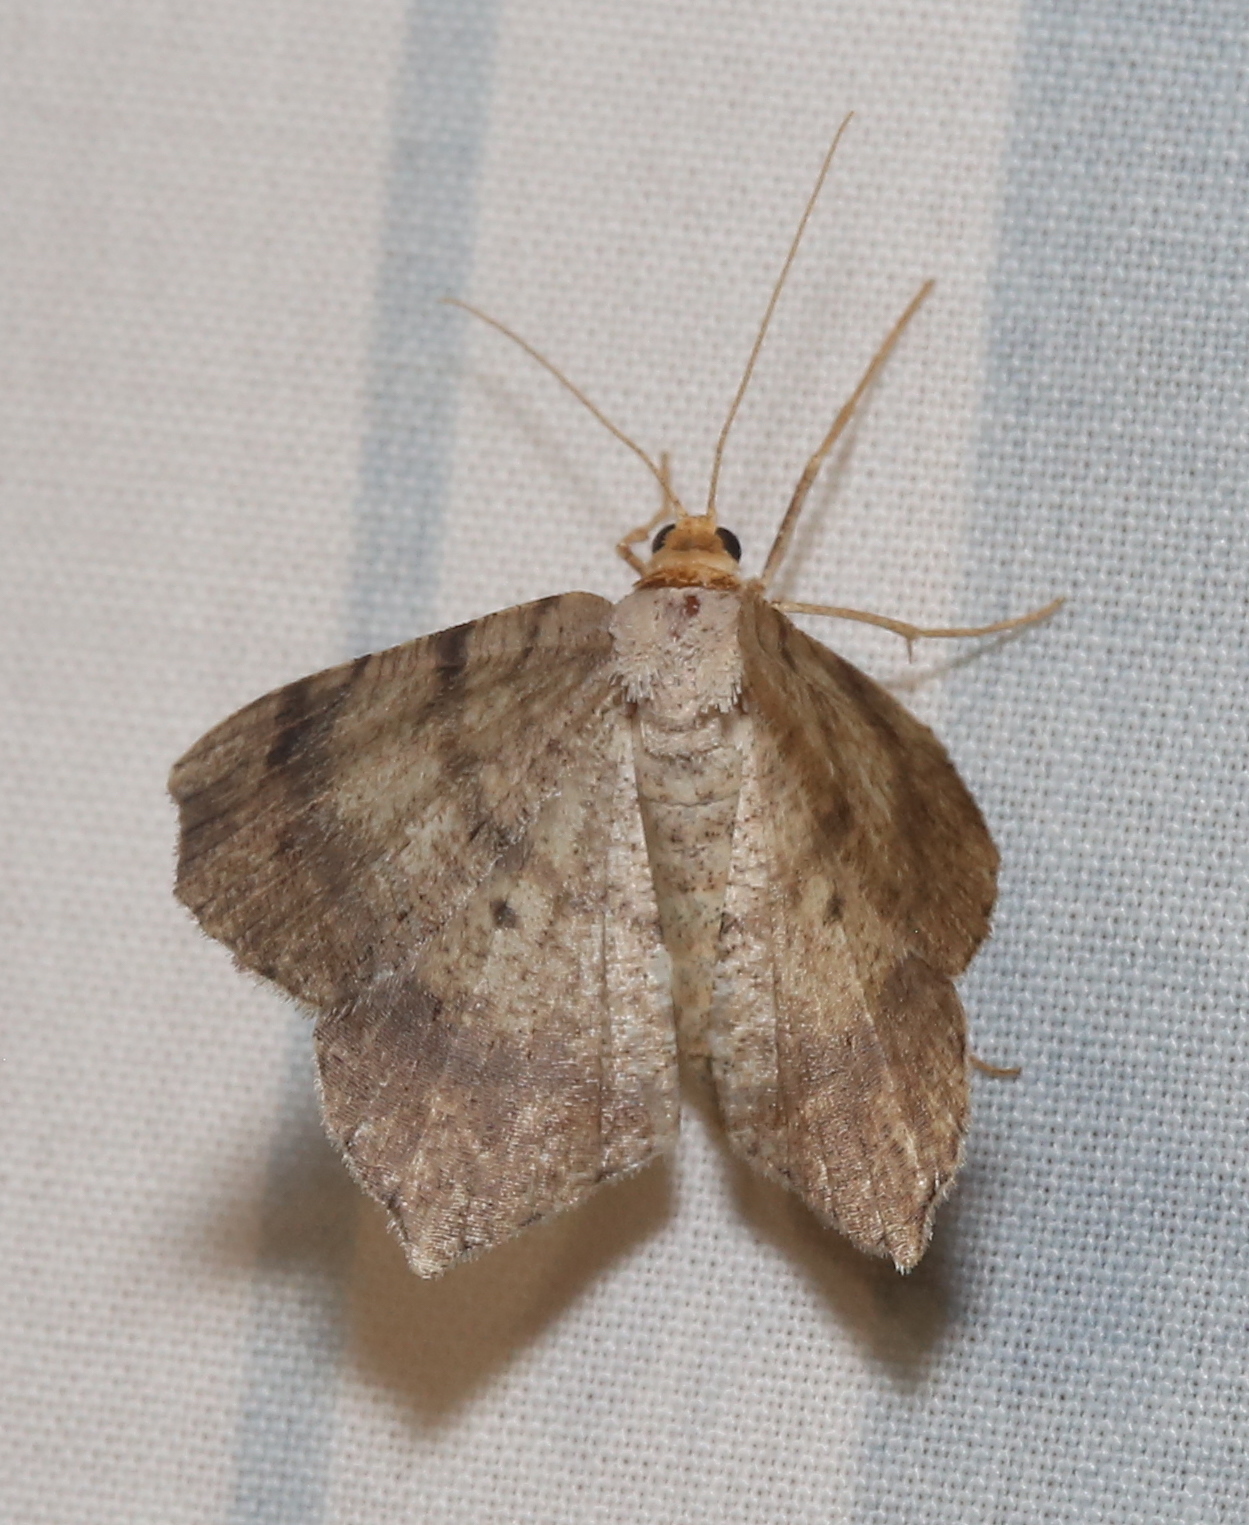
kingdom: Animalia
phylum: Arthropoda
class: Insecta
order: Lepidoptera
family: Geometridae
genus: Macaria
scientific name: Macaria bicolorata
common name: Dingy angle
